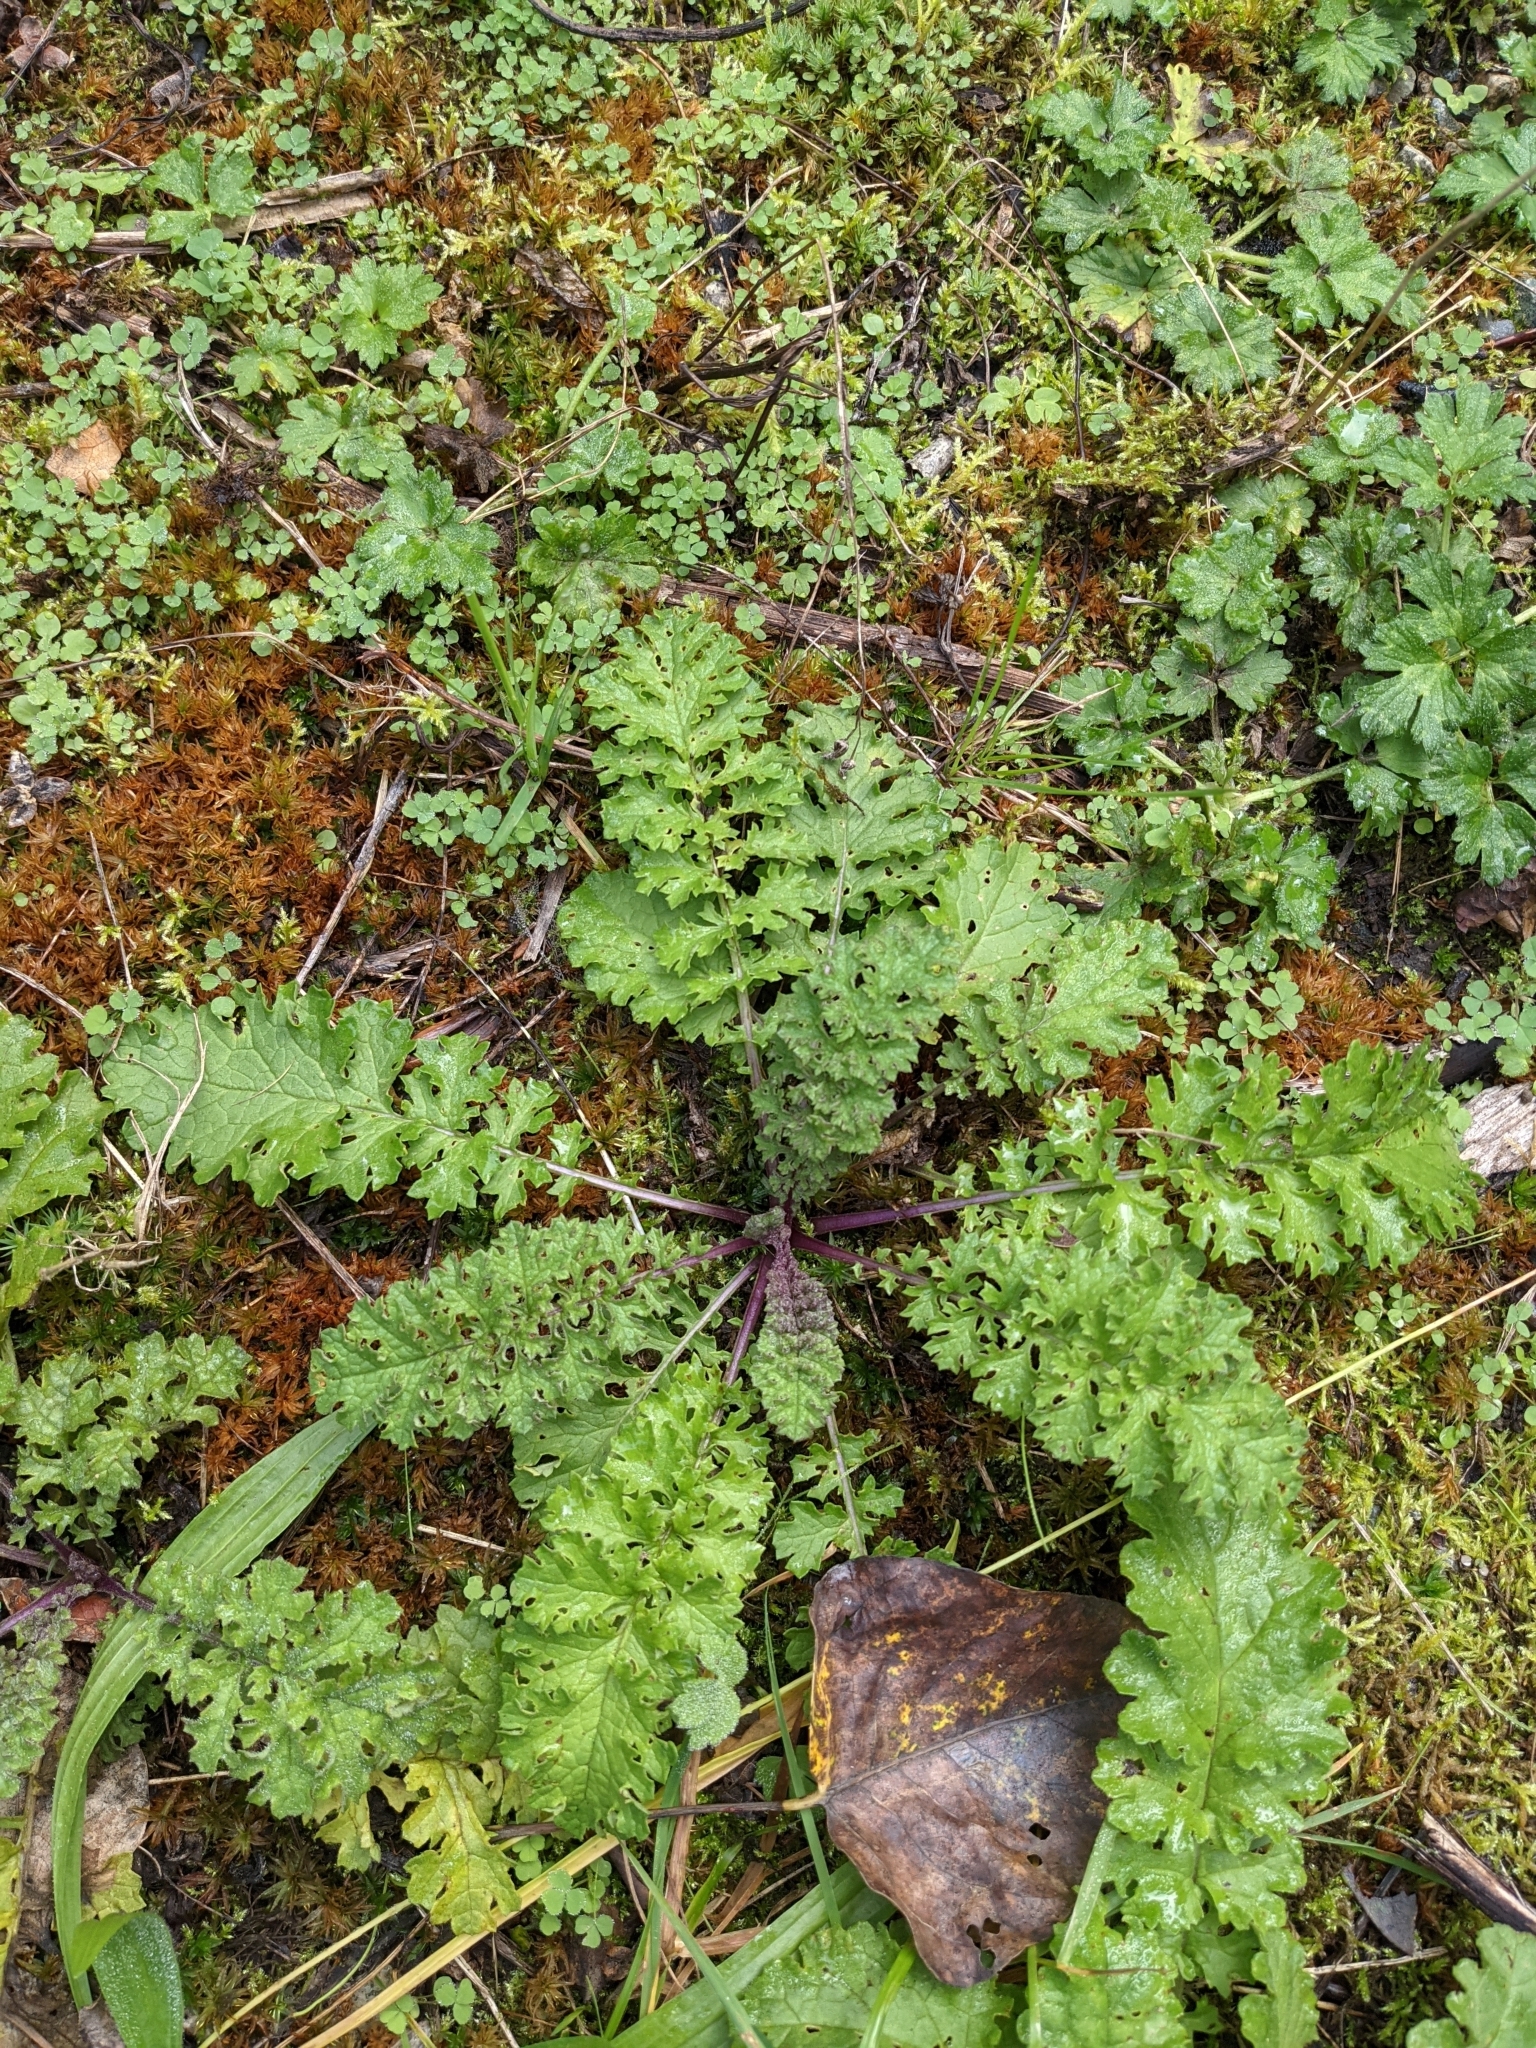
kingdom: Plantae
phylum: Tracheophyta
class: Magnoliopsida
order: Asterales
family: Asteraceae
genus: Jacobaea
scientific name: Jacobaea vulgaris
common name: Stinking willie
